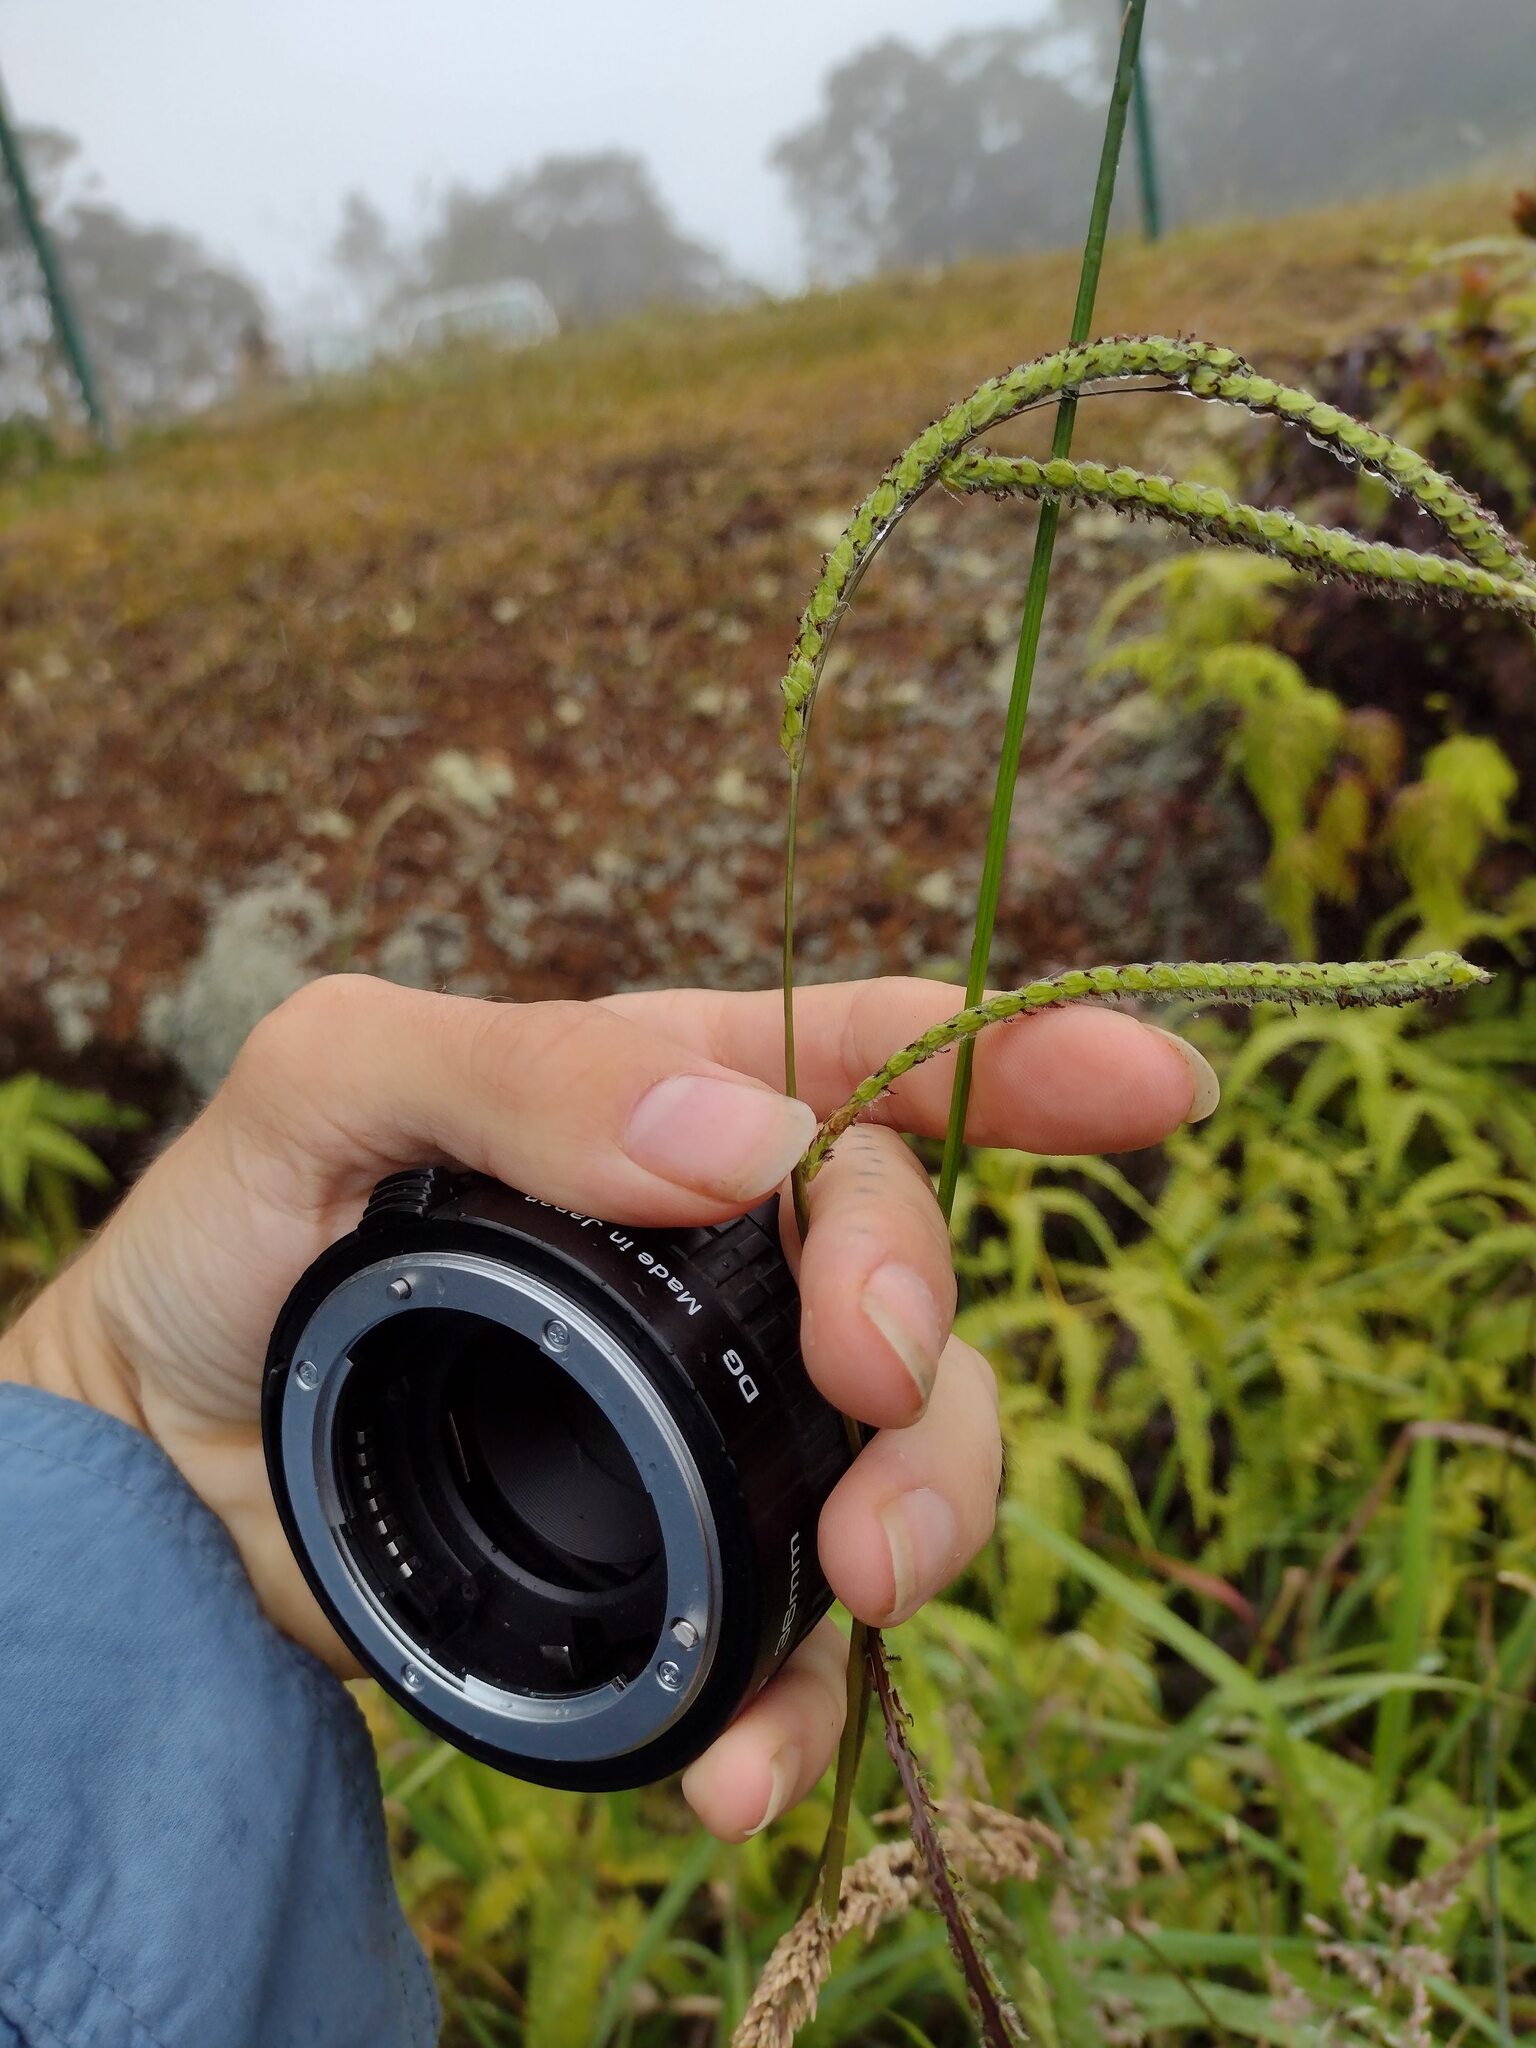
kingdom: Plantae
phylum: Tracheophyta
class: Liliopsida
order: Poales
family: Poaceae
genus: Paspalum
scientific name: Paspalum dilatatum
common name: Dallisgrass
